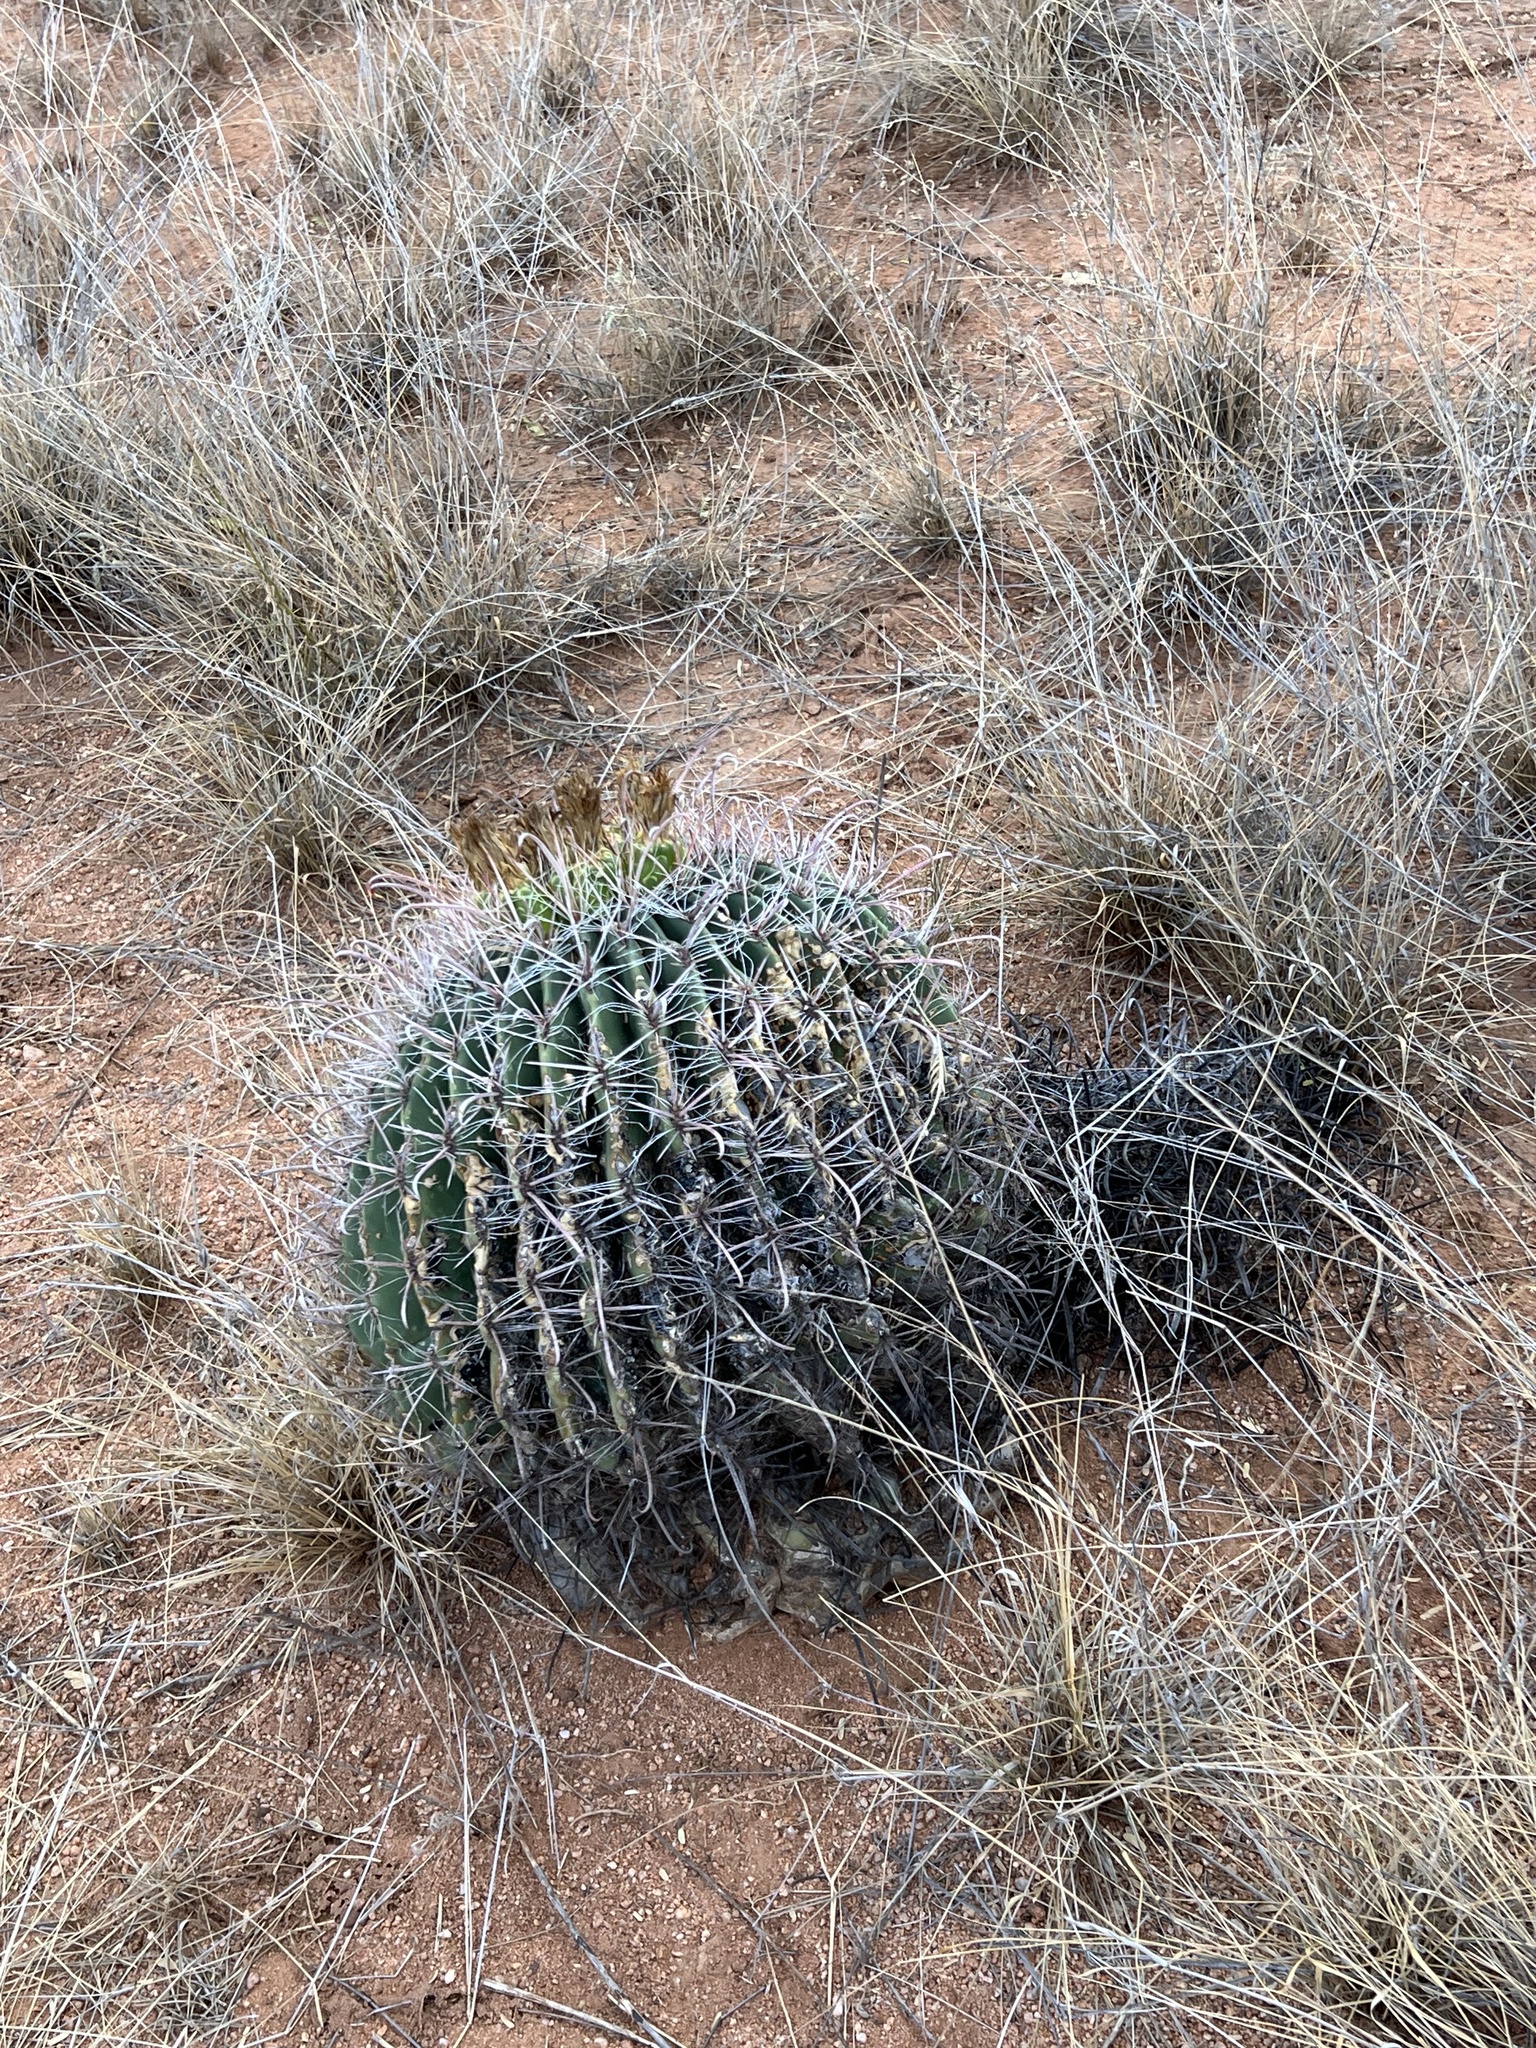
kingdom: Plantae
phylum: Tracheophyta
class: Magnoliopsida
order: Caryophyllales
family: Cactaceae
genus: Ferocactus
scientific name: Ferocactus wislizeni
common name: Candy barrel cactus
